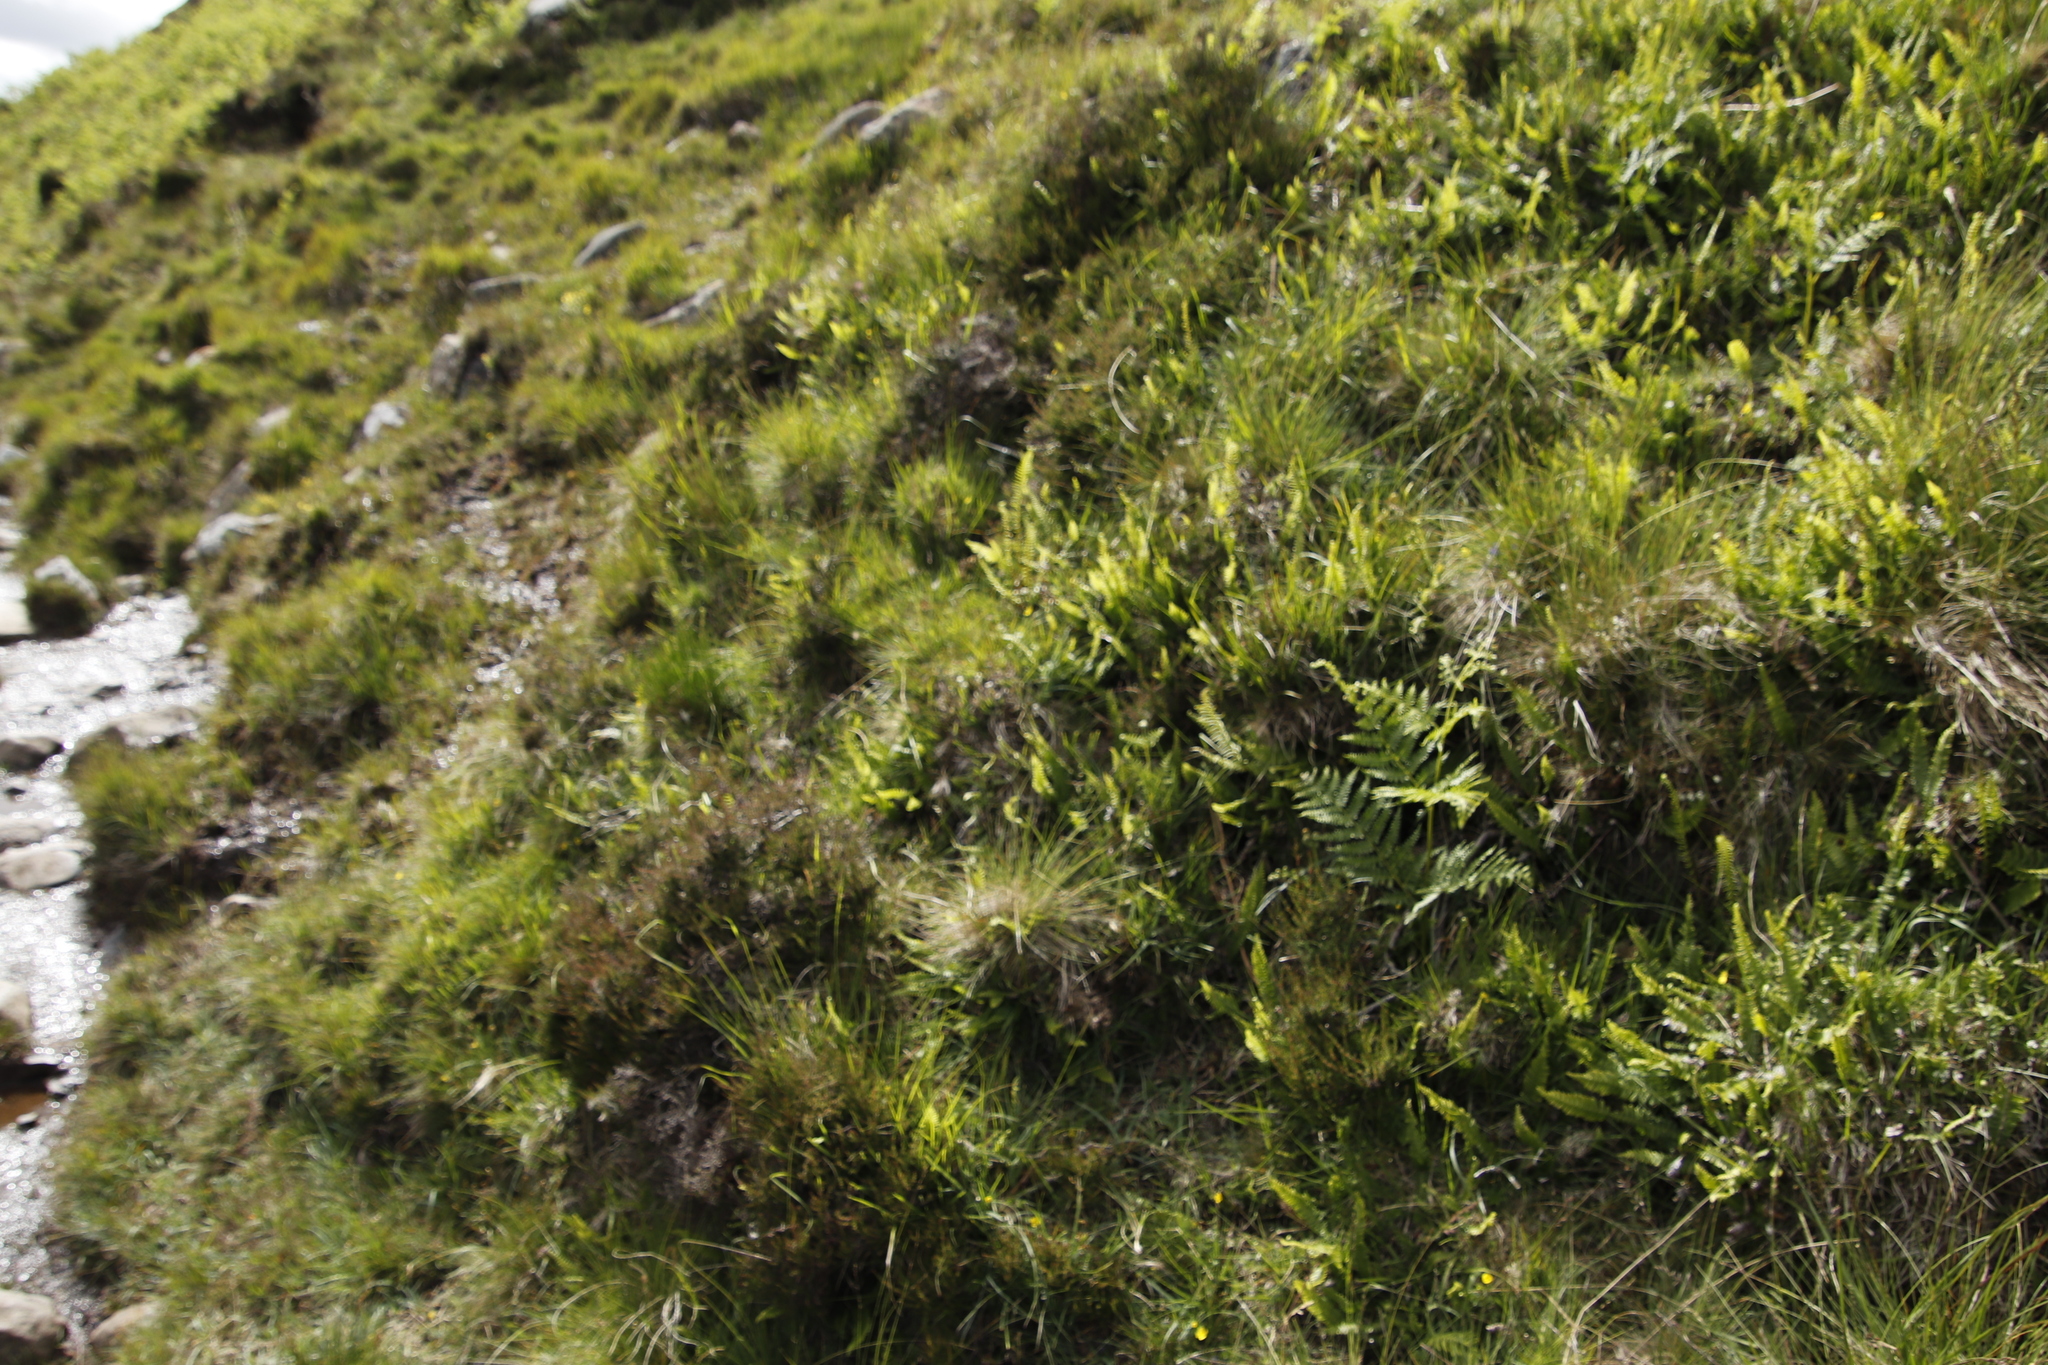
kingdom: Plantae
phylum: Tracheophyta
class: Polypodiopsida
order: Polypodiales
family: Blechnaceae
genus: Struthiopteris
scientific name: Struthiopteris spicant
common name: Deer fern
